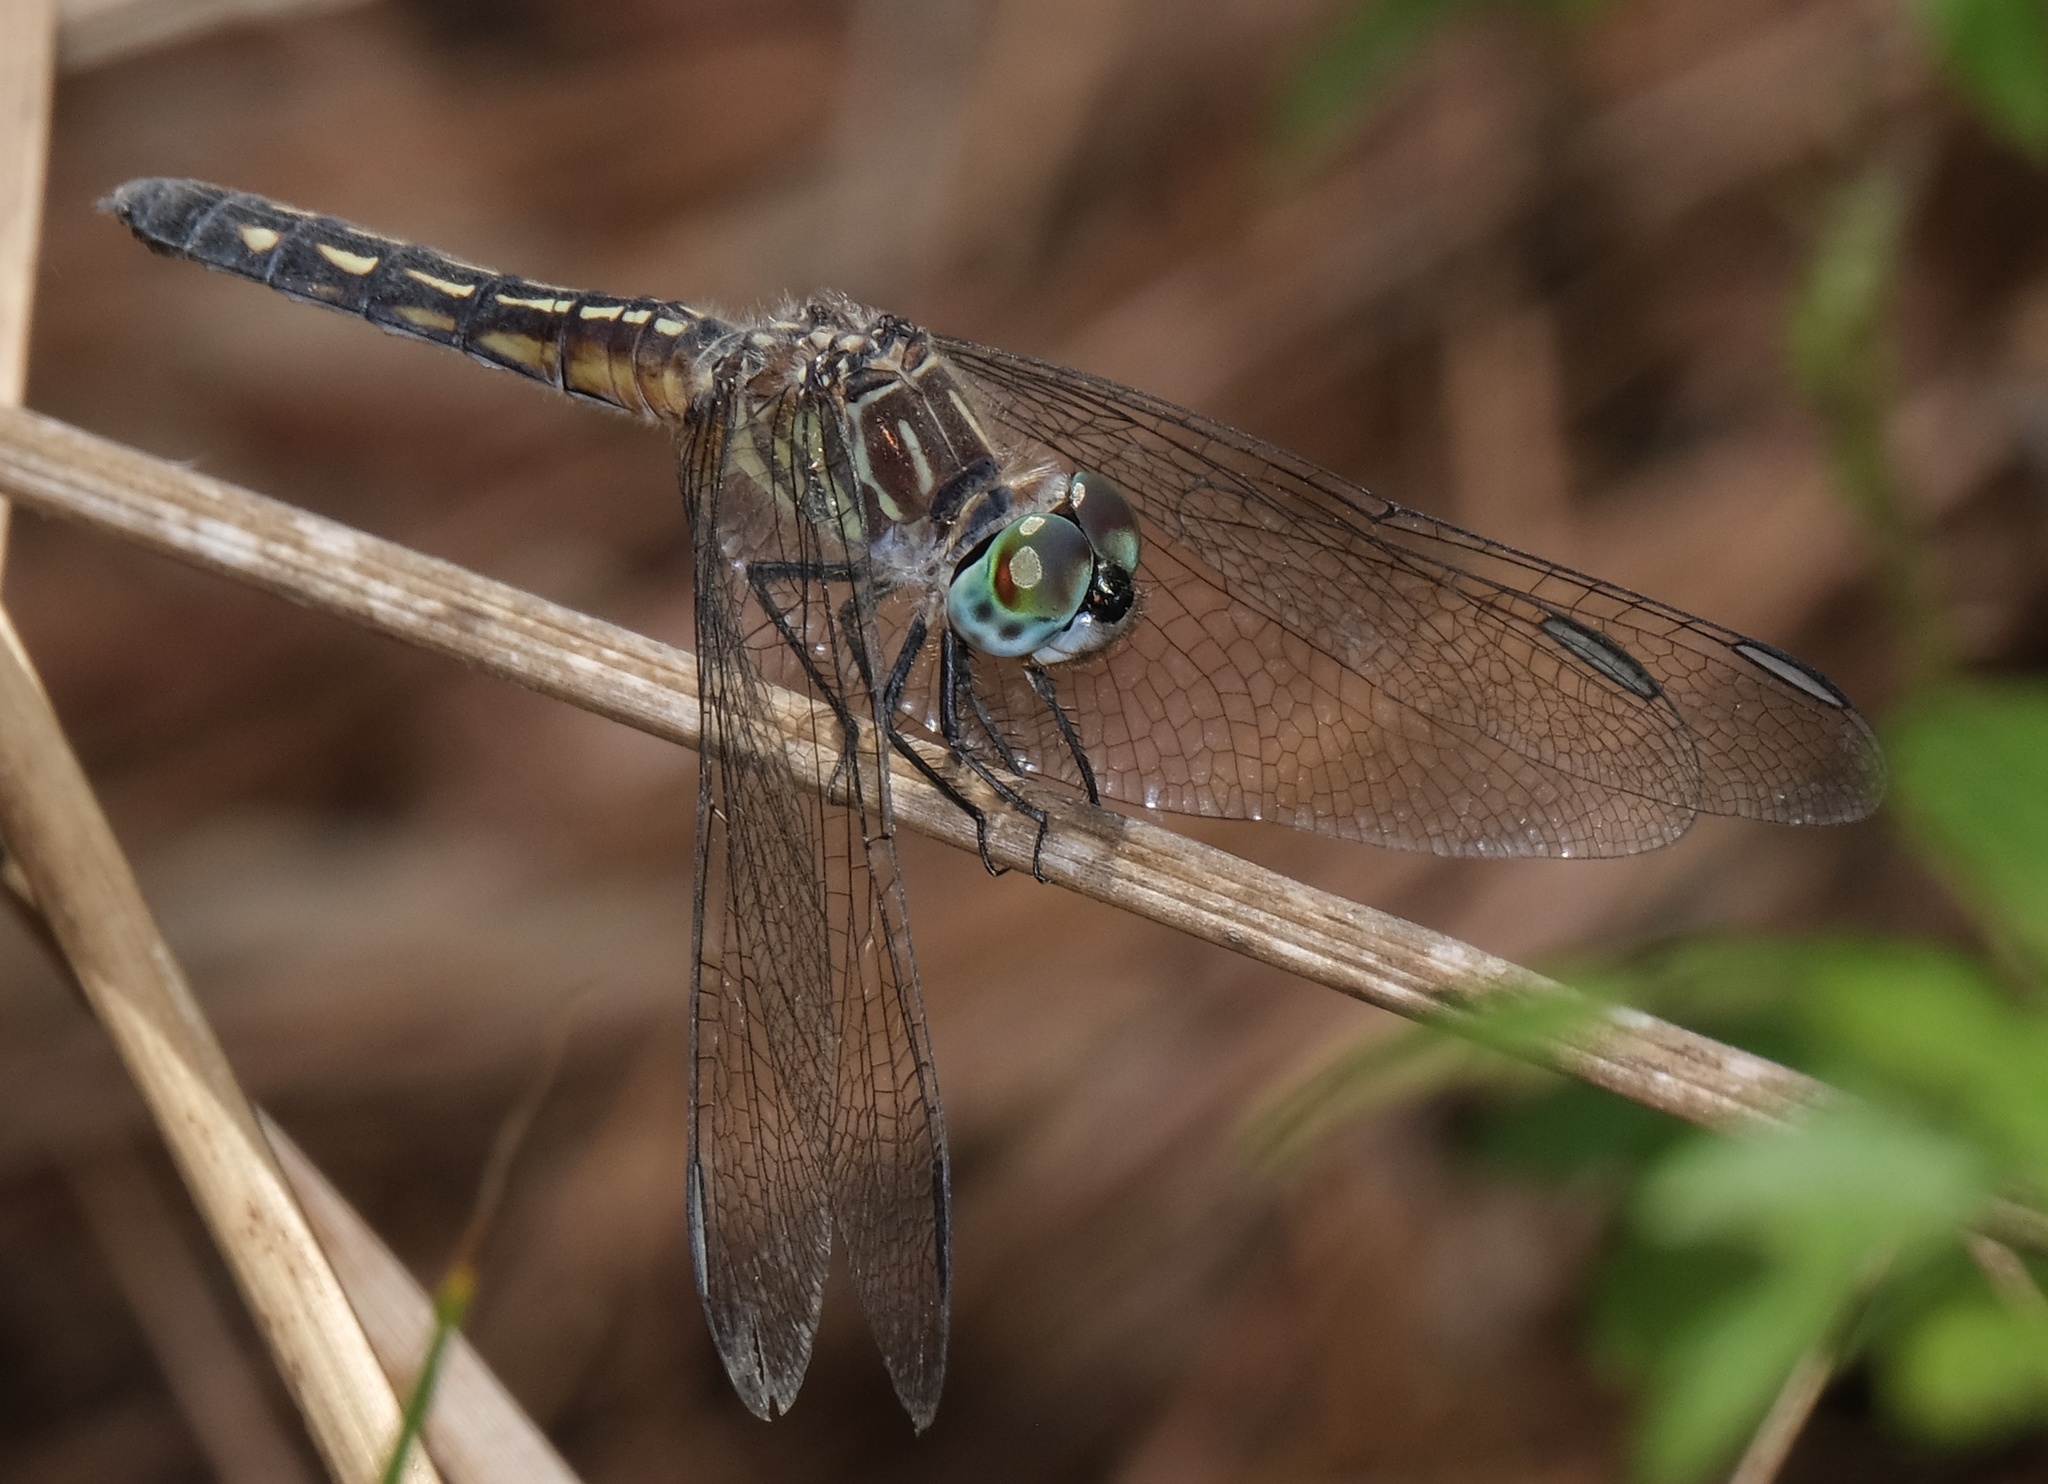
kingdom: Animalia
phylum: Arthropoda
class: Insecta
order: Odonata
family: Libellulidae
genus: Pachydiplax
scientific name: Pachydiplax longipennis
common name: Blue dasher
